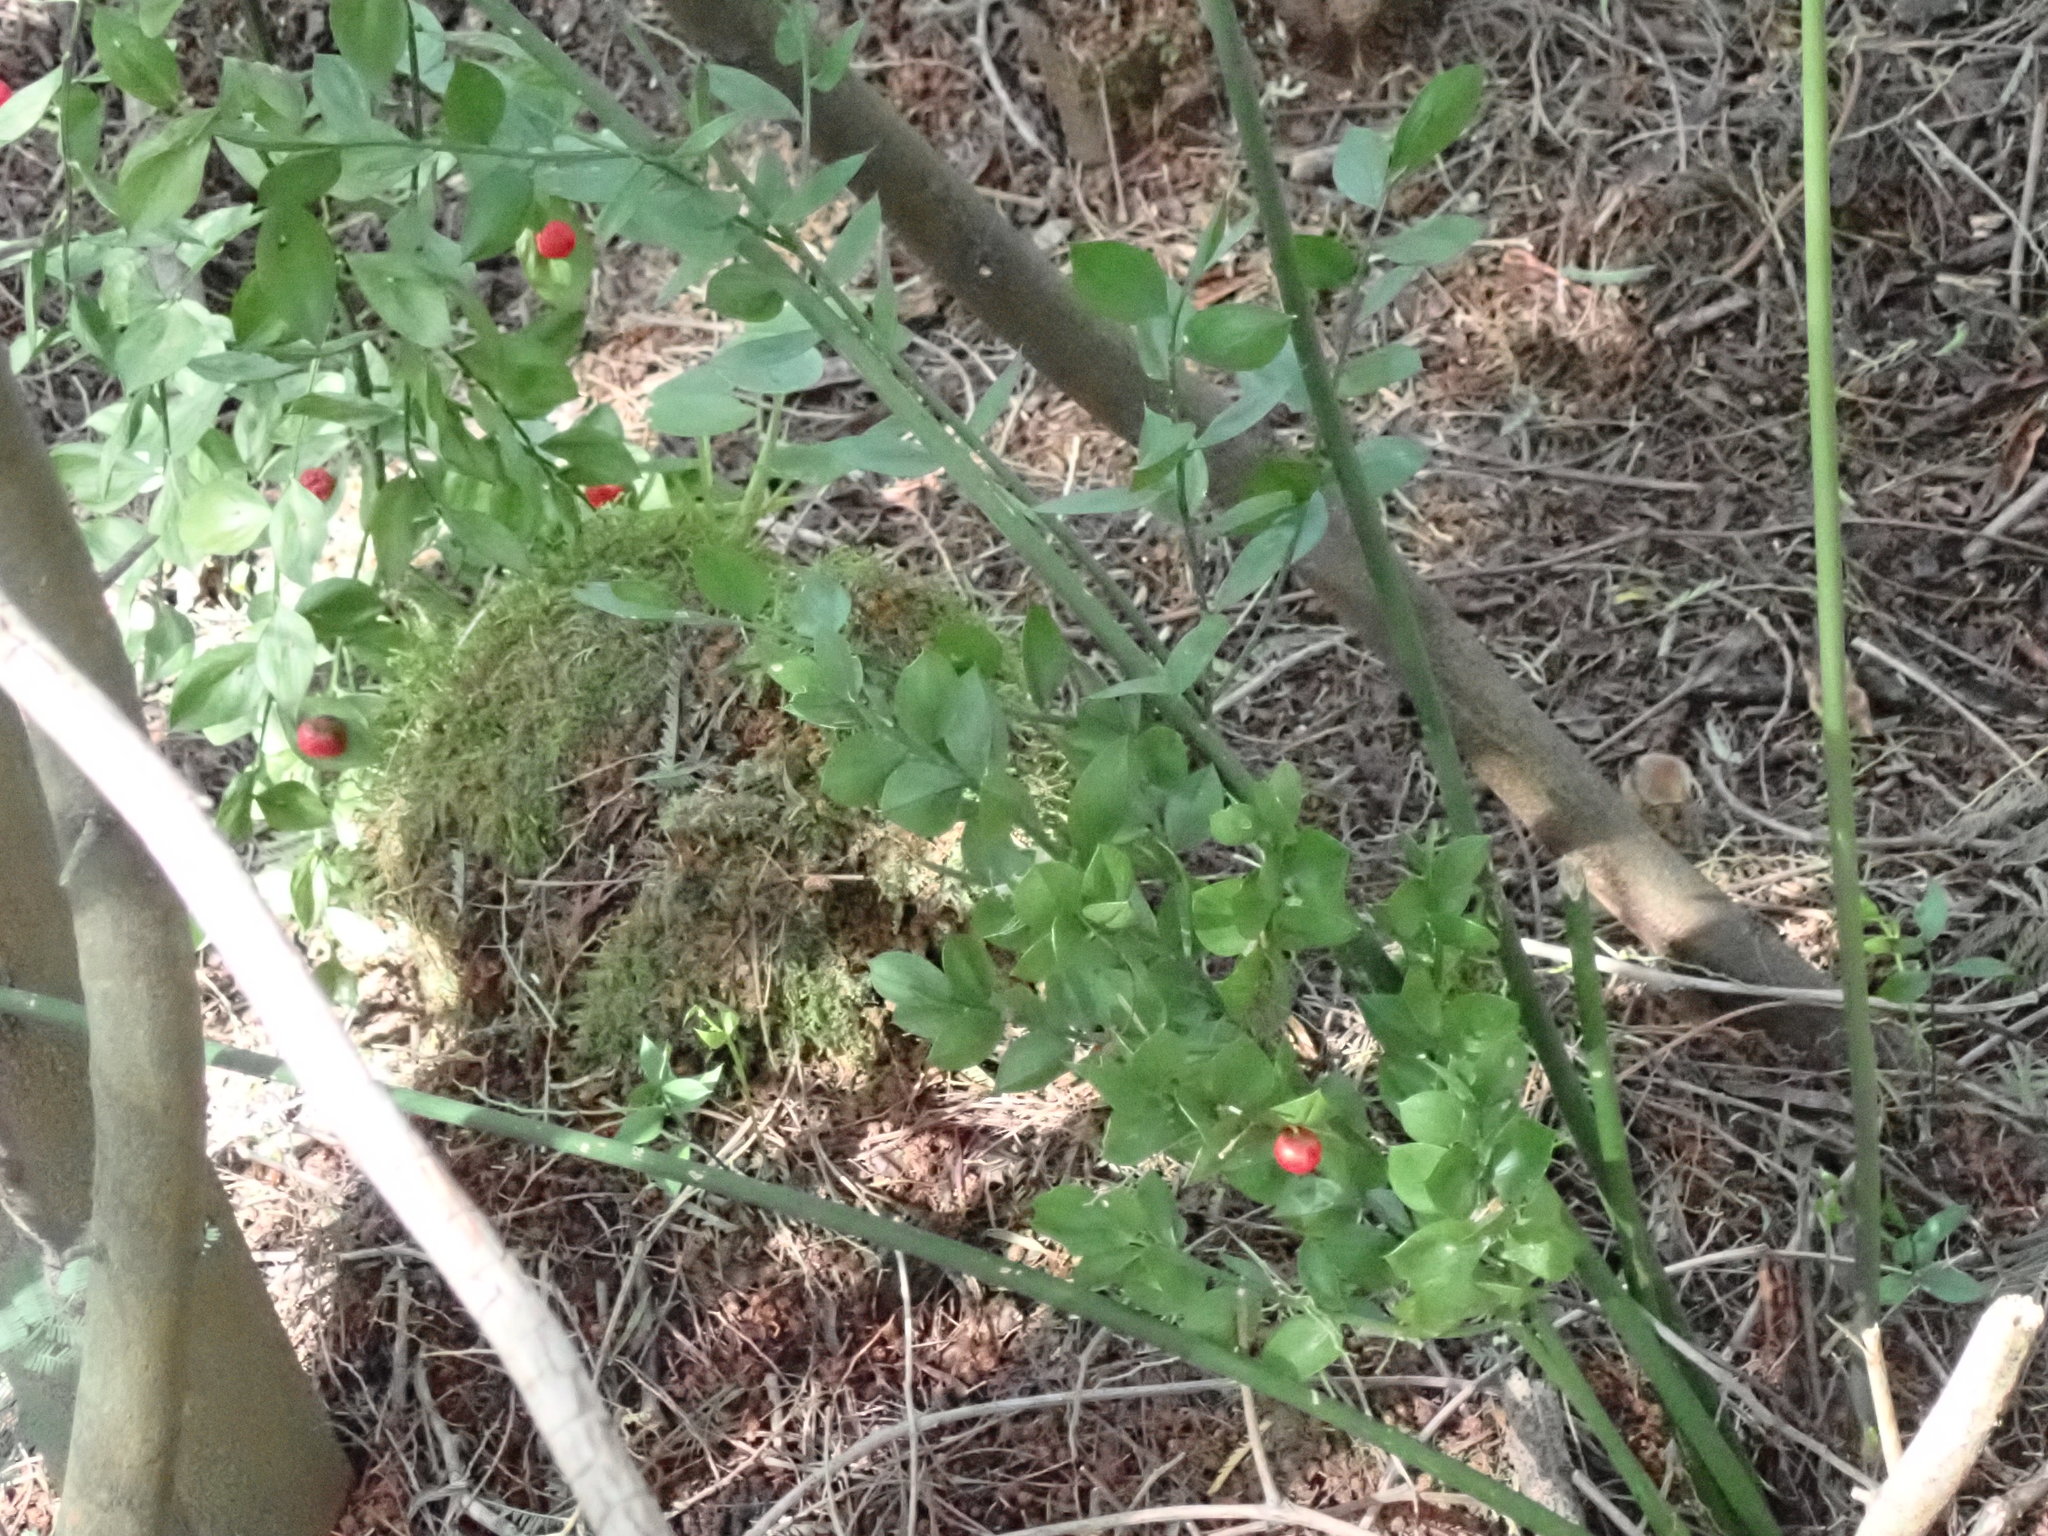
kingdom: Plantae
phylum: Tracheophyta
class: Liliopsida
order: Asparagales
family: Asparagaceae
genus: Ruscus
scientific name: Ruscus aculeatus
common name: Butcher's-broom
